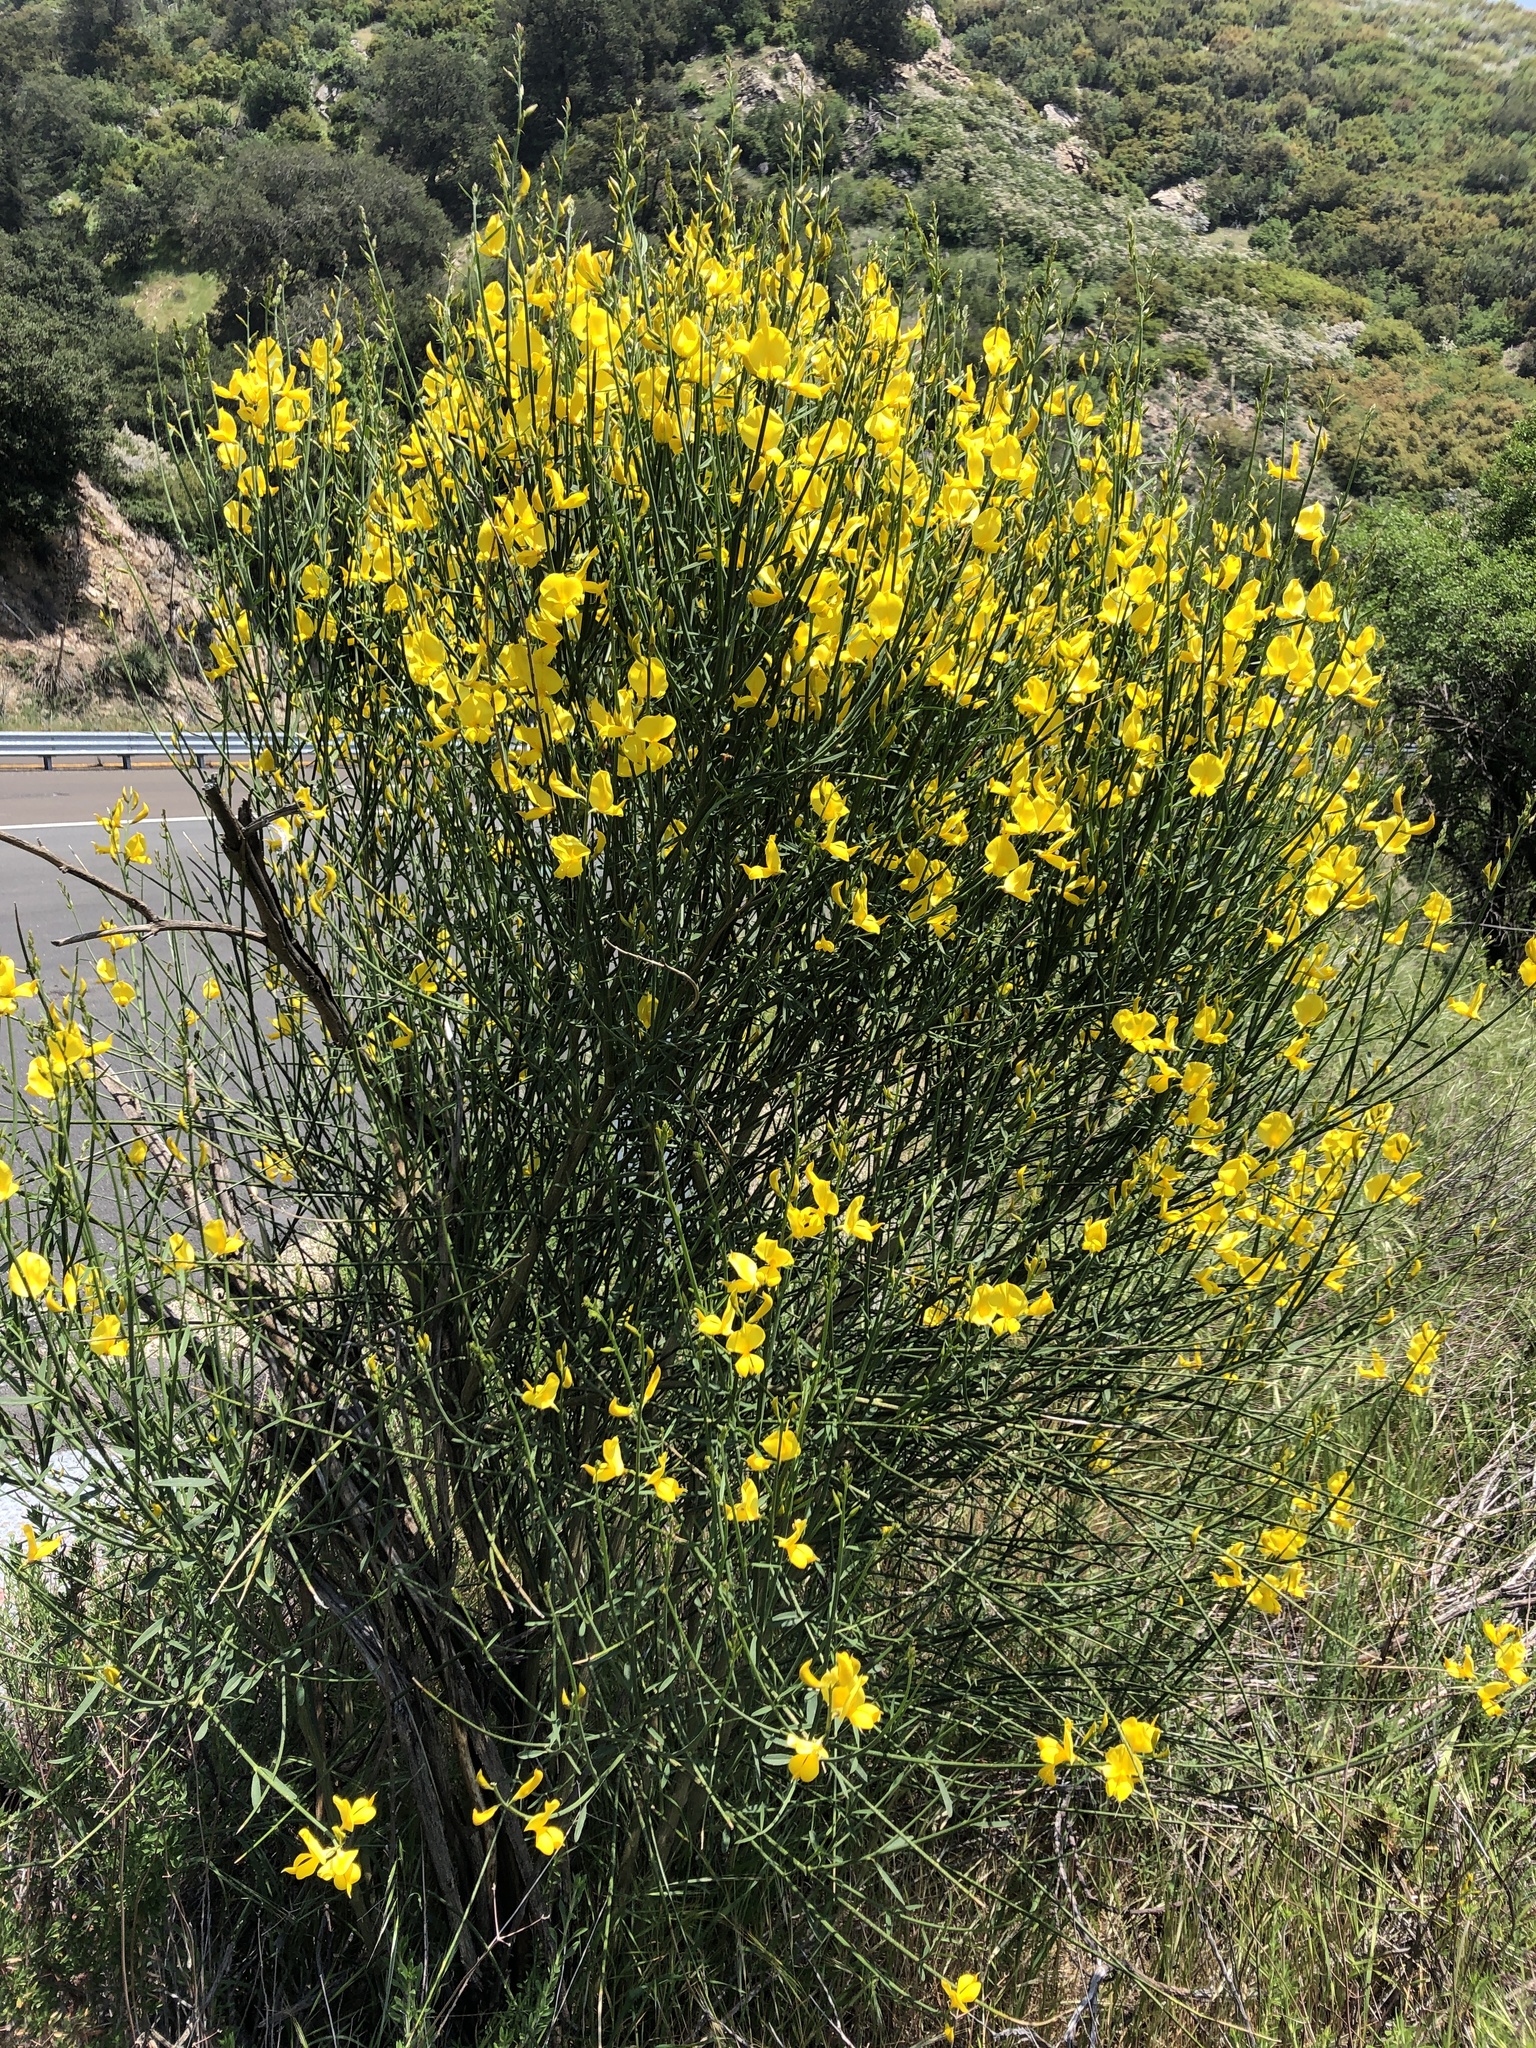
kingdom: Plantae
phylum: Tracheophyta
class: Magnoliopsida
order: Fabales
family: Fabaceae
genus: Spartium
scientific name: Spartium junceum
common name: Spanish broom
